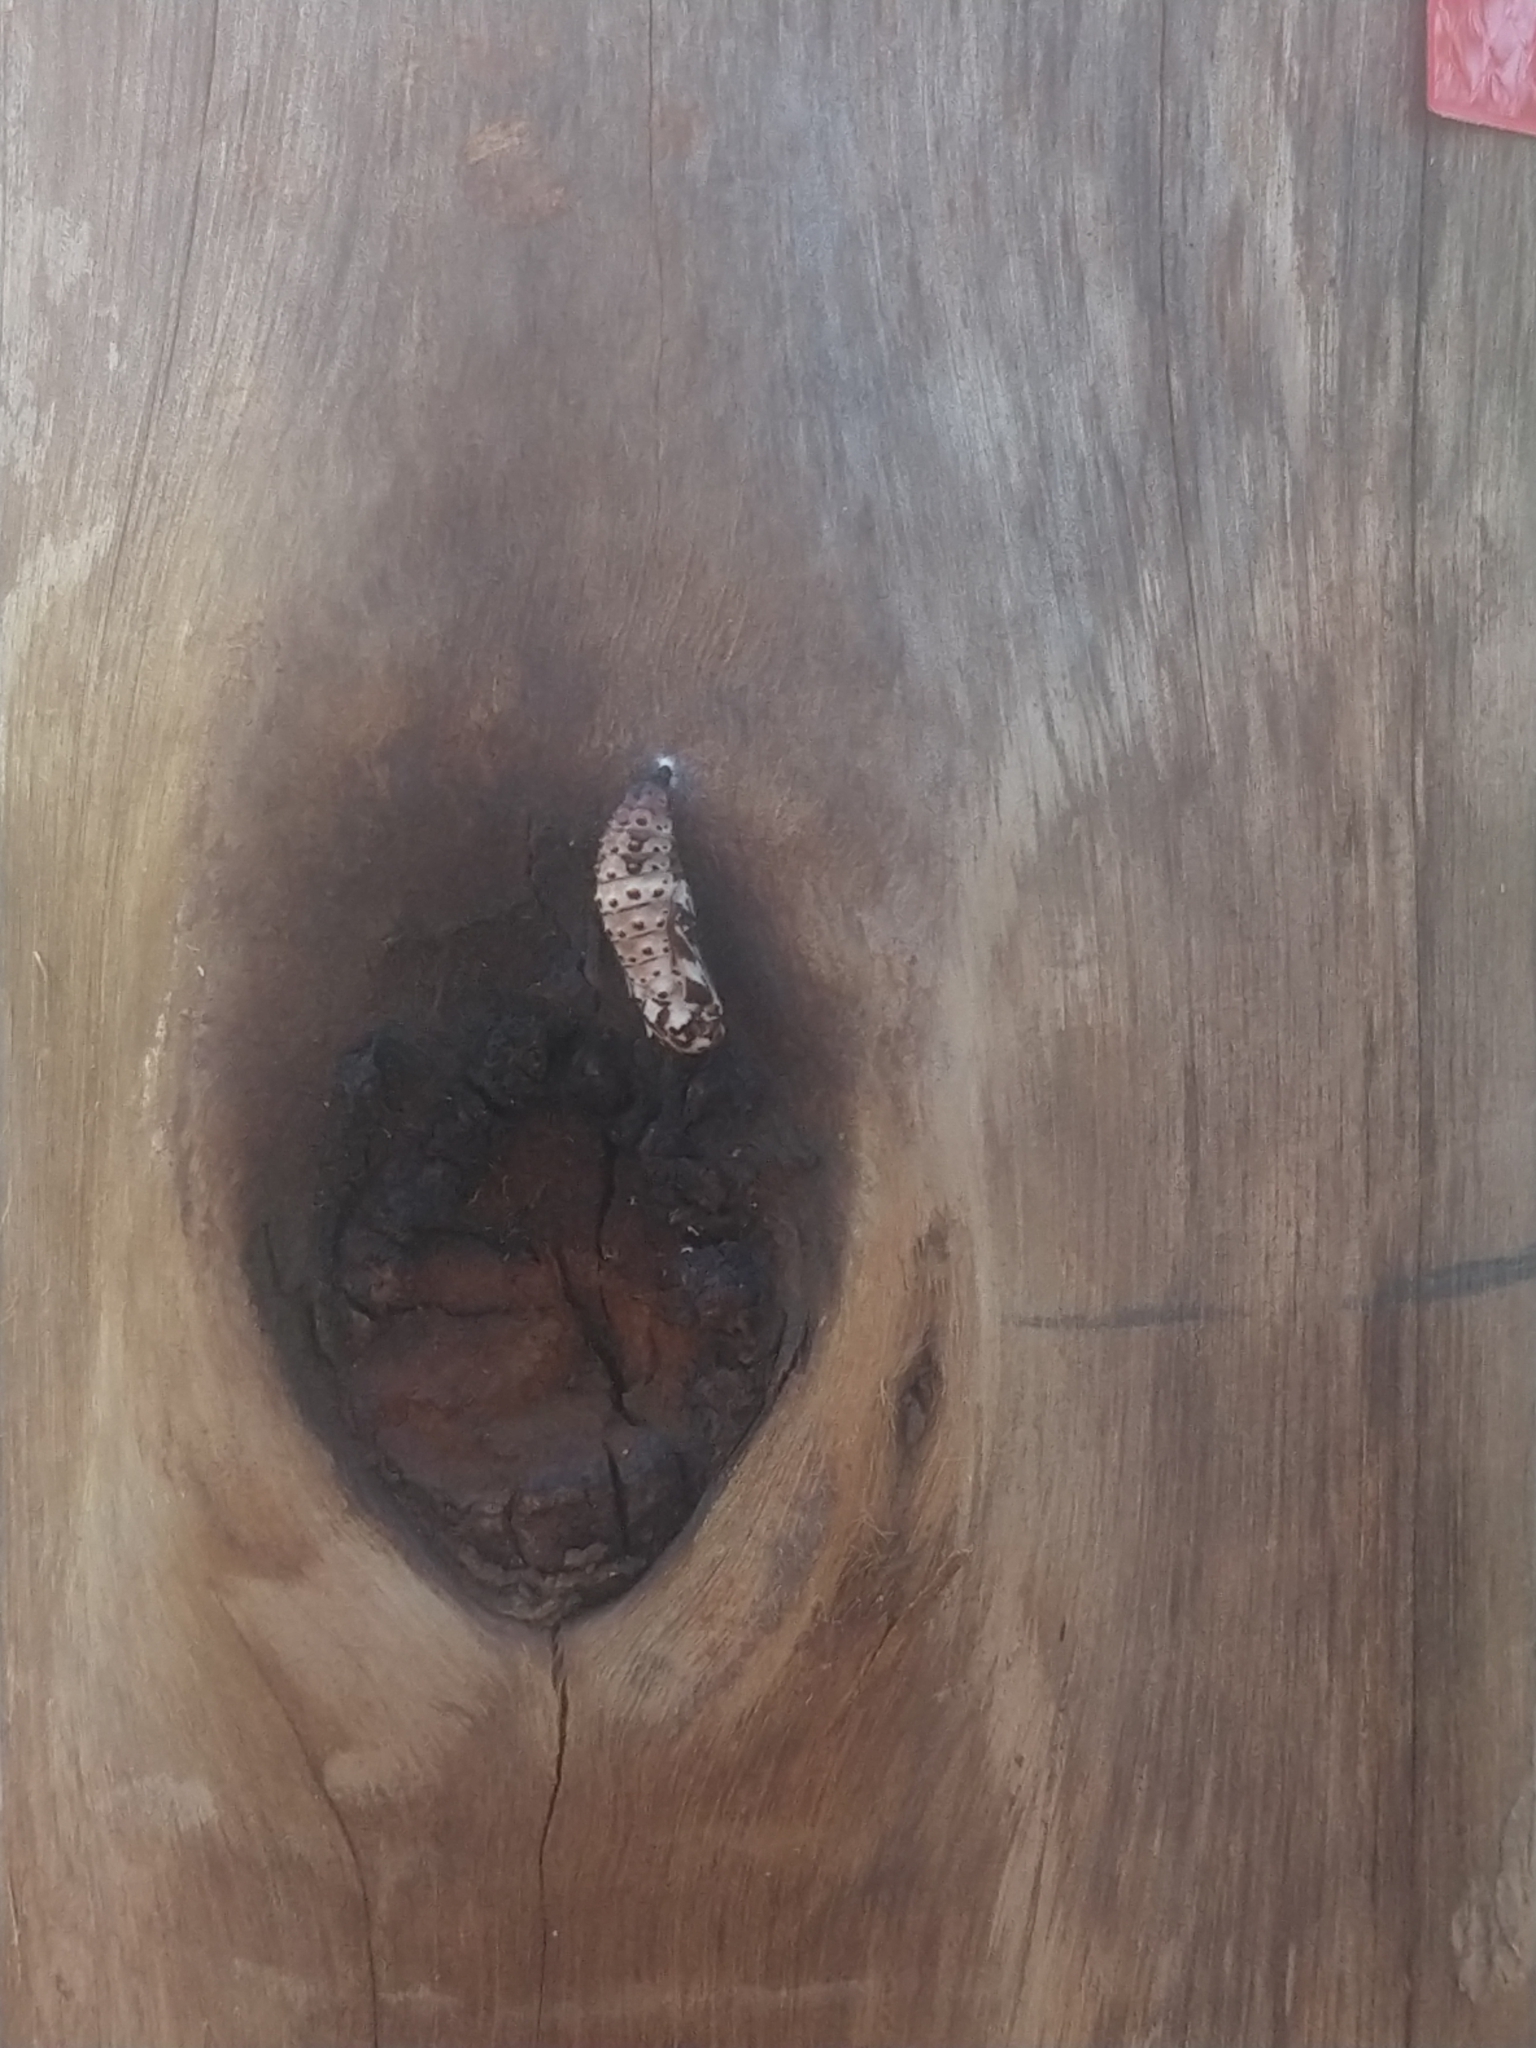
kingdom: Animalia
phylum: Arthropoda
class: Insecta
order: Lepidoptera
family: Nymphalidae
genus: Chlosyne
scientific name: Chlosyne lacinia
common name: Bordered patch
